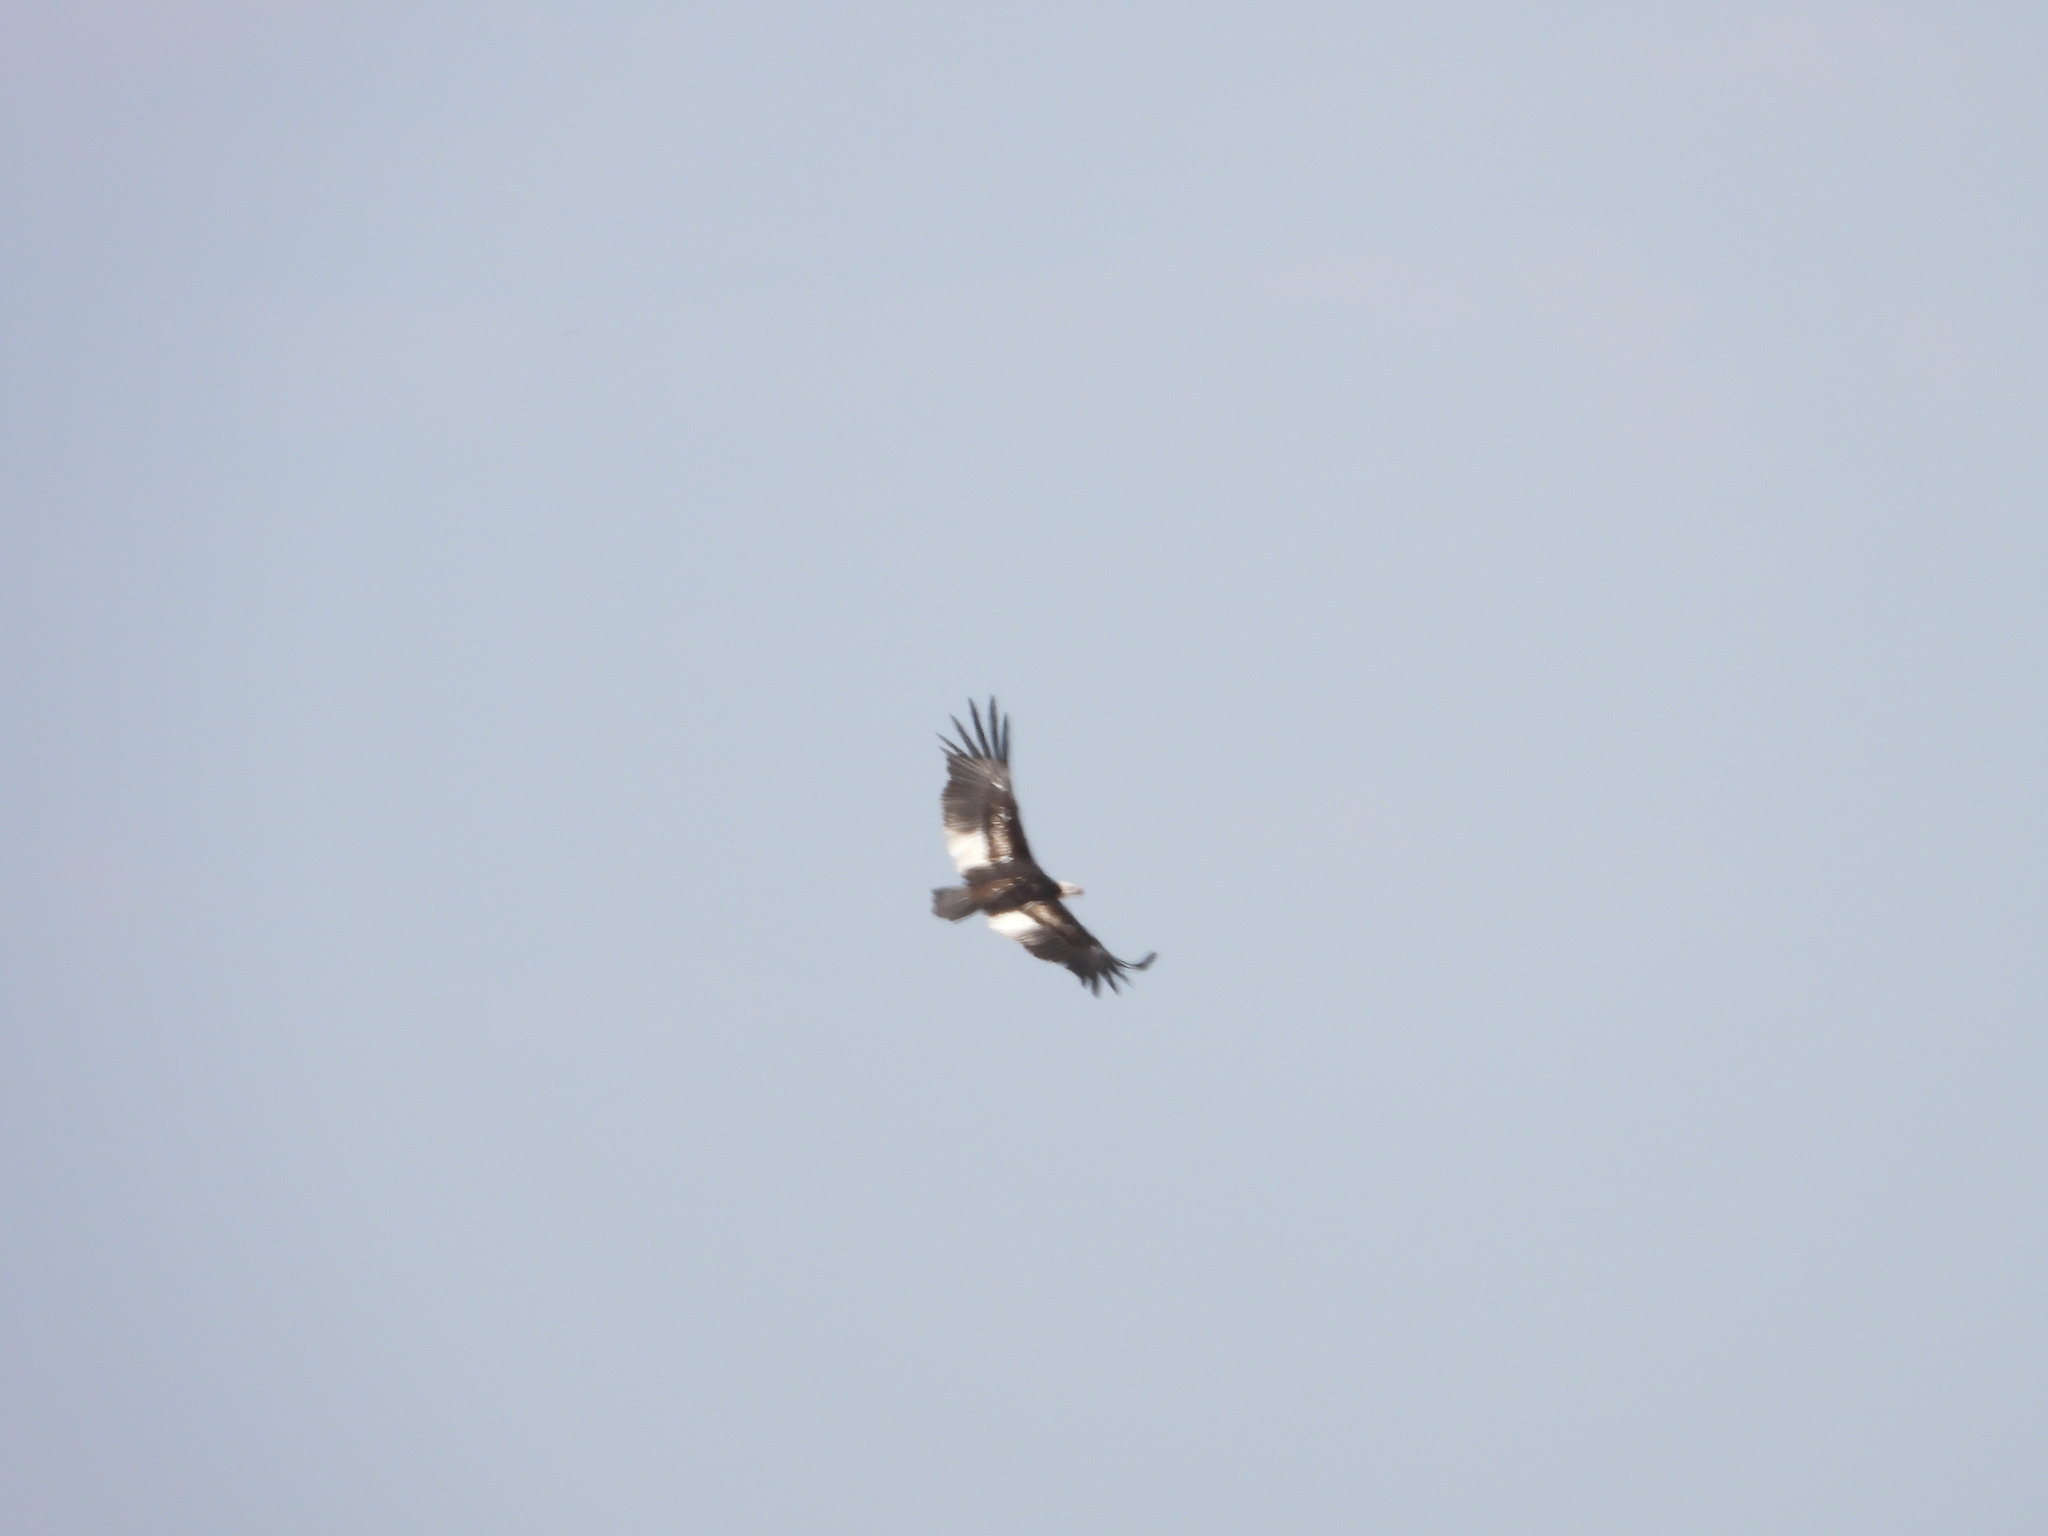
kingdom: Animalia
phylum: Chordata
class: Aves
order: Accipitriformes
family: Accipitridae
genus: Trigonoceps
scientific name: Trigonoceps occipitalis
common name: White-headed vulture
